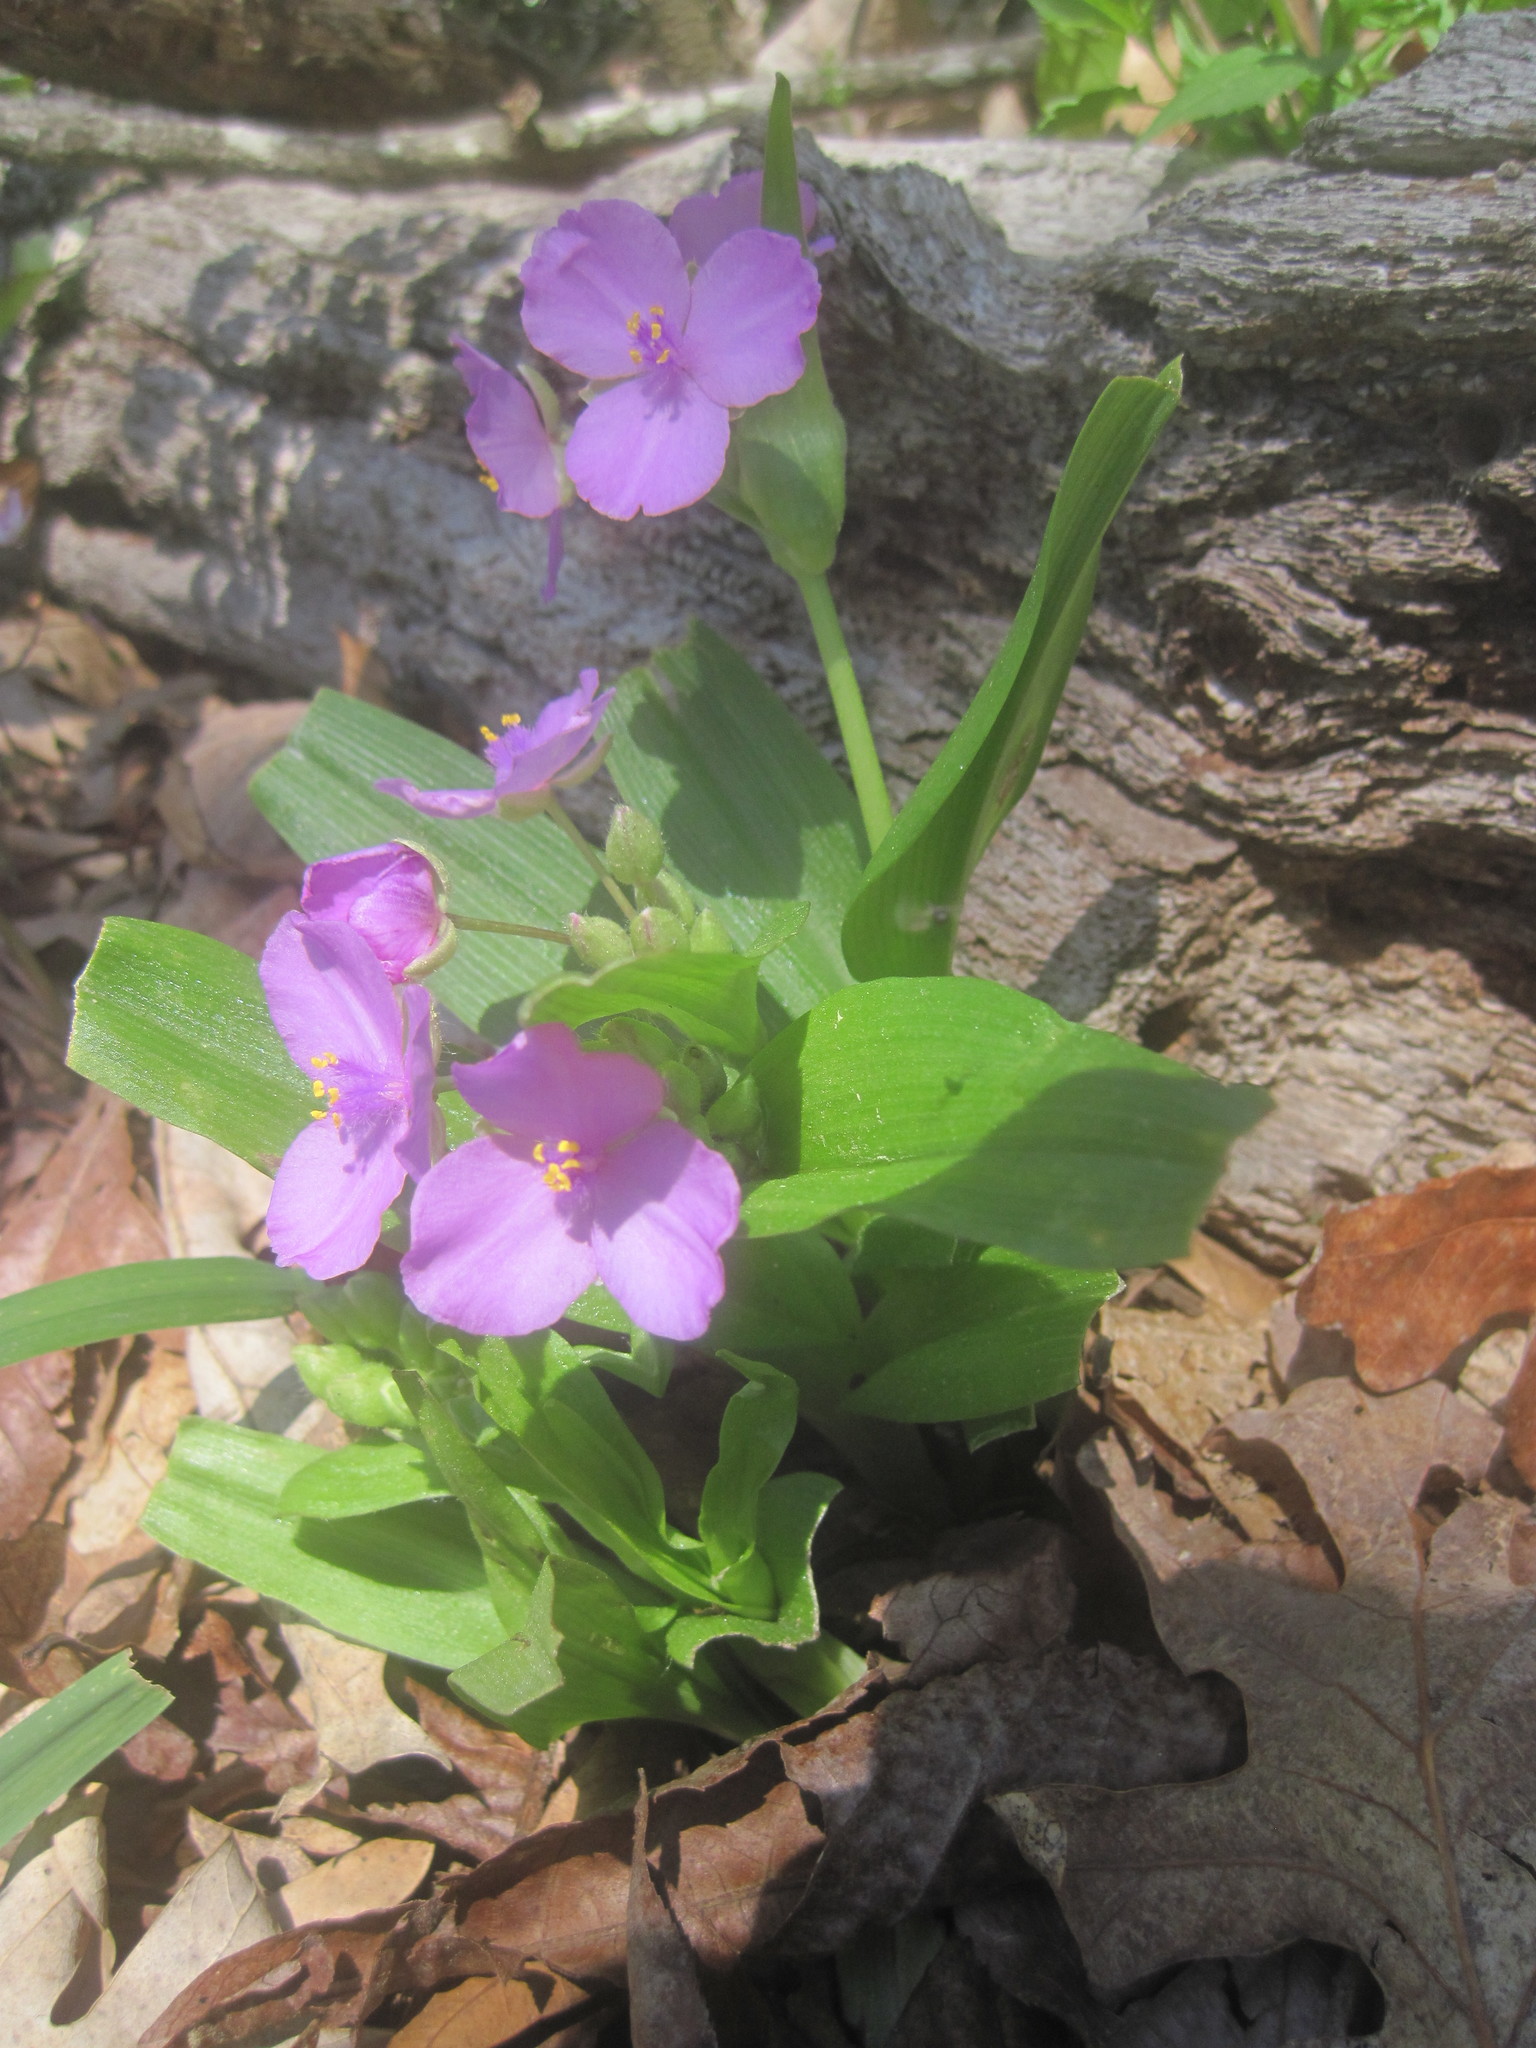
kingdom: Plantae
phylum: Tracheophyta
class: Liliopsida
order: Commelinales
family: Commelinaceae
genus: Tradescantia
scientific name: Tradescantia ernestiana
